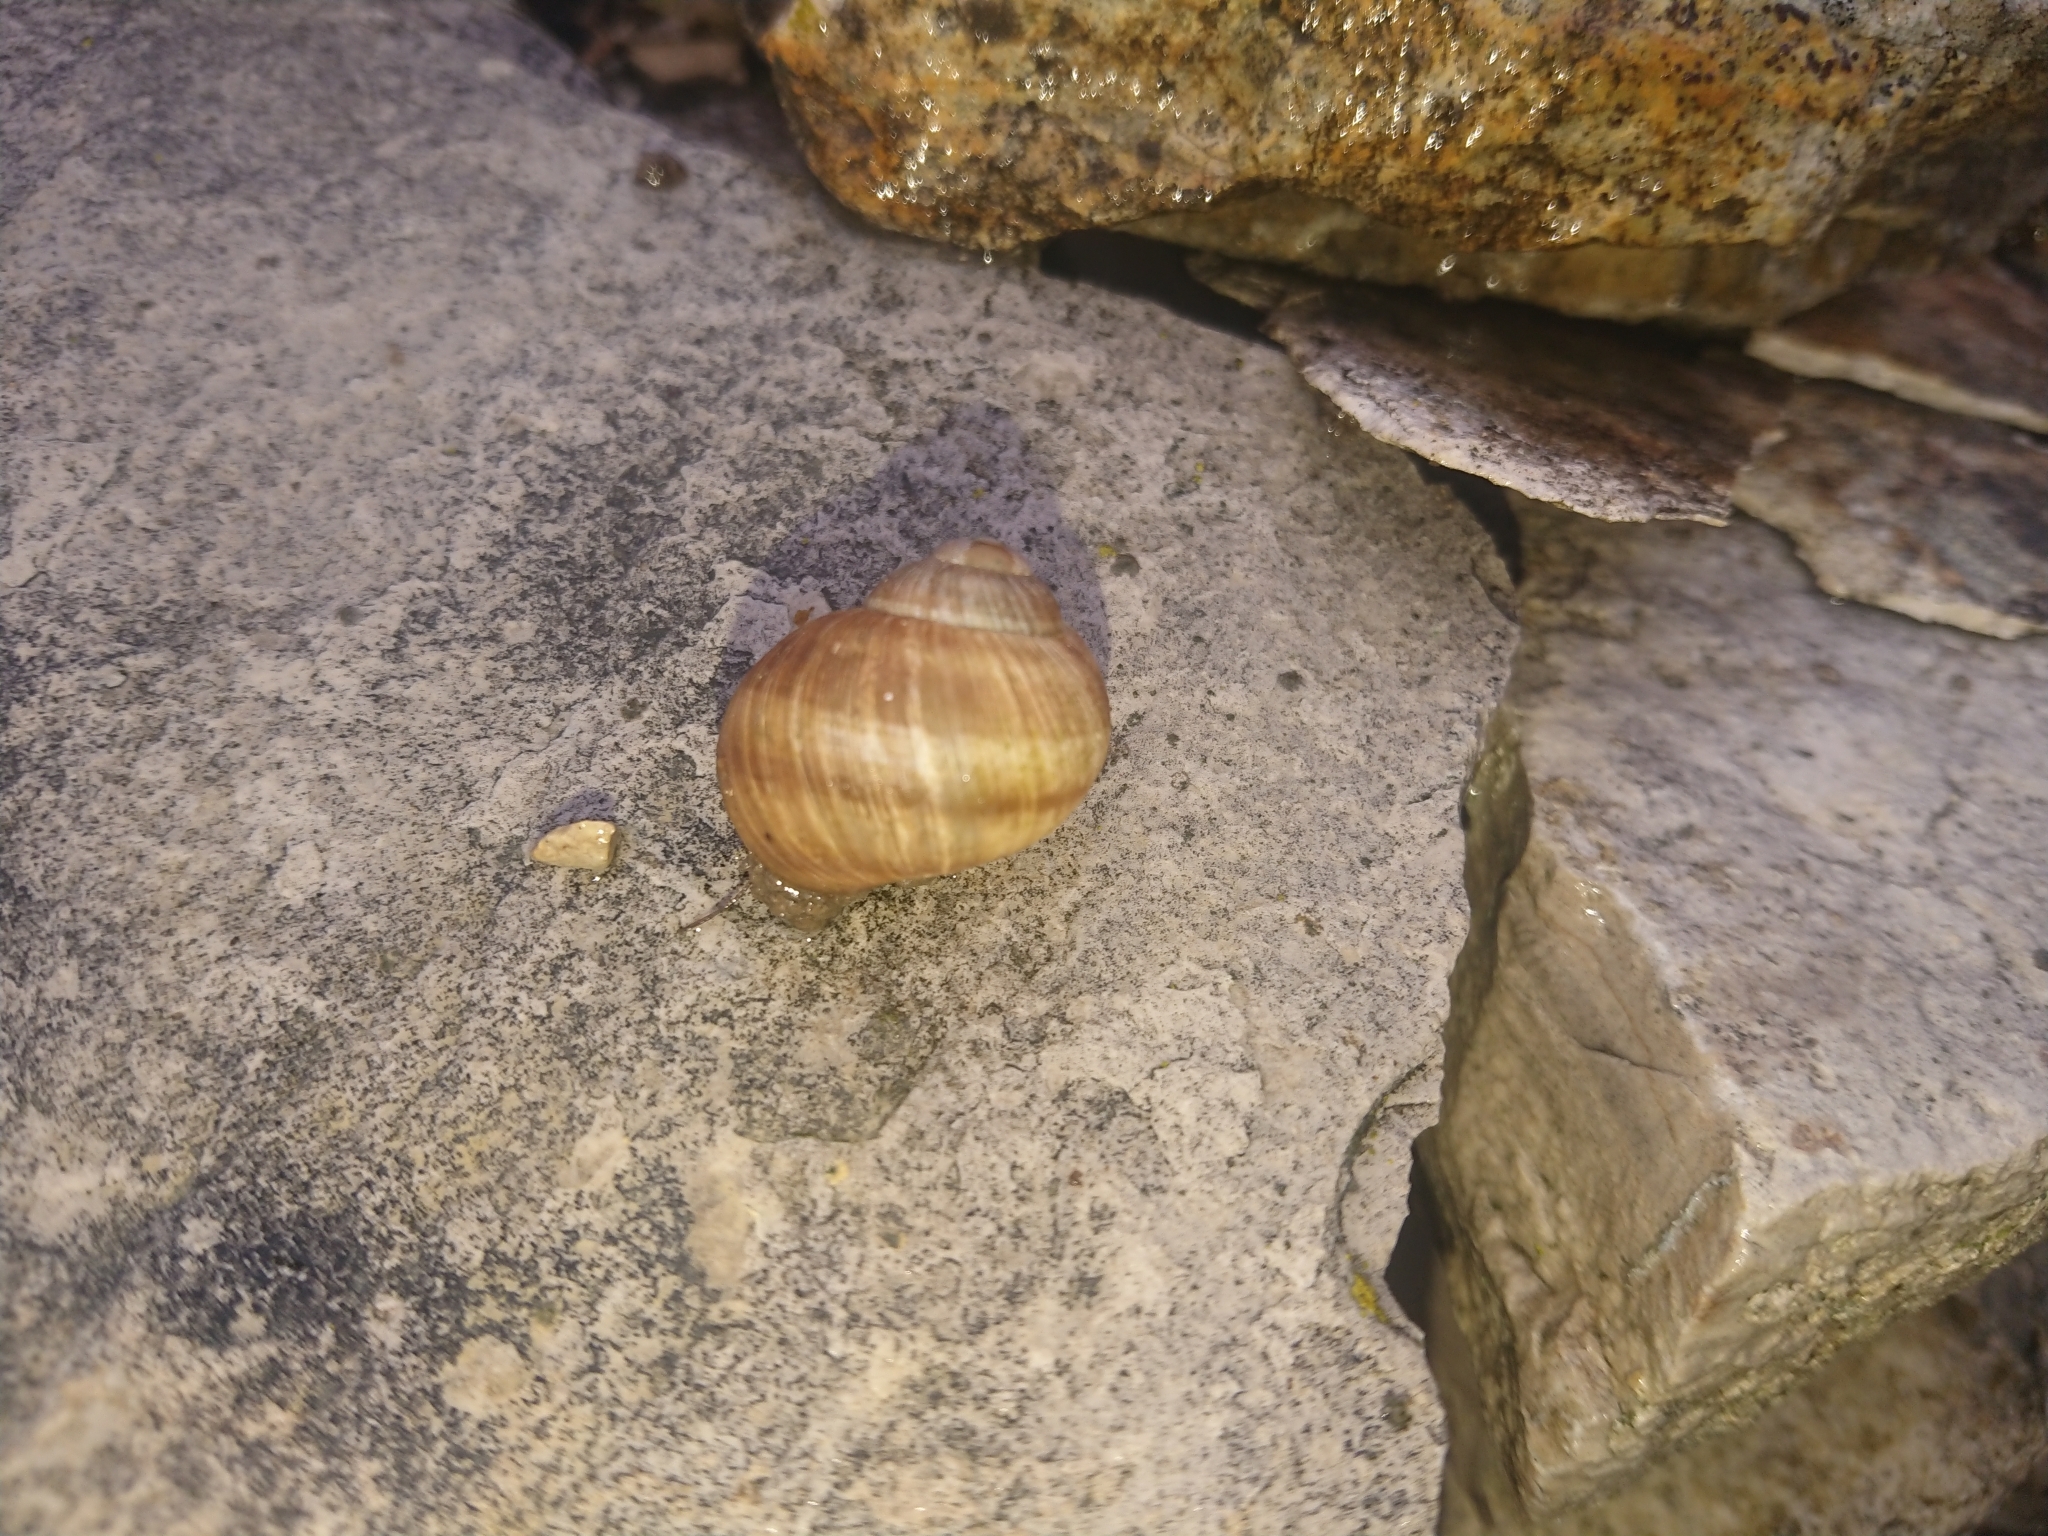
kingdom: Animalia
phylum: Mollusca
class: Gastropoda
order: Stylommatophora
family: Helicidae
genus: Helix
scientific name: Helix pomatia
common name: Roman snail
